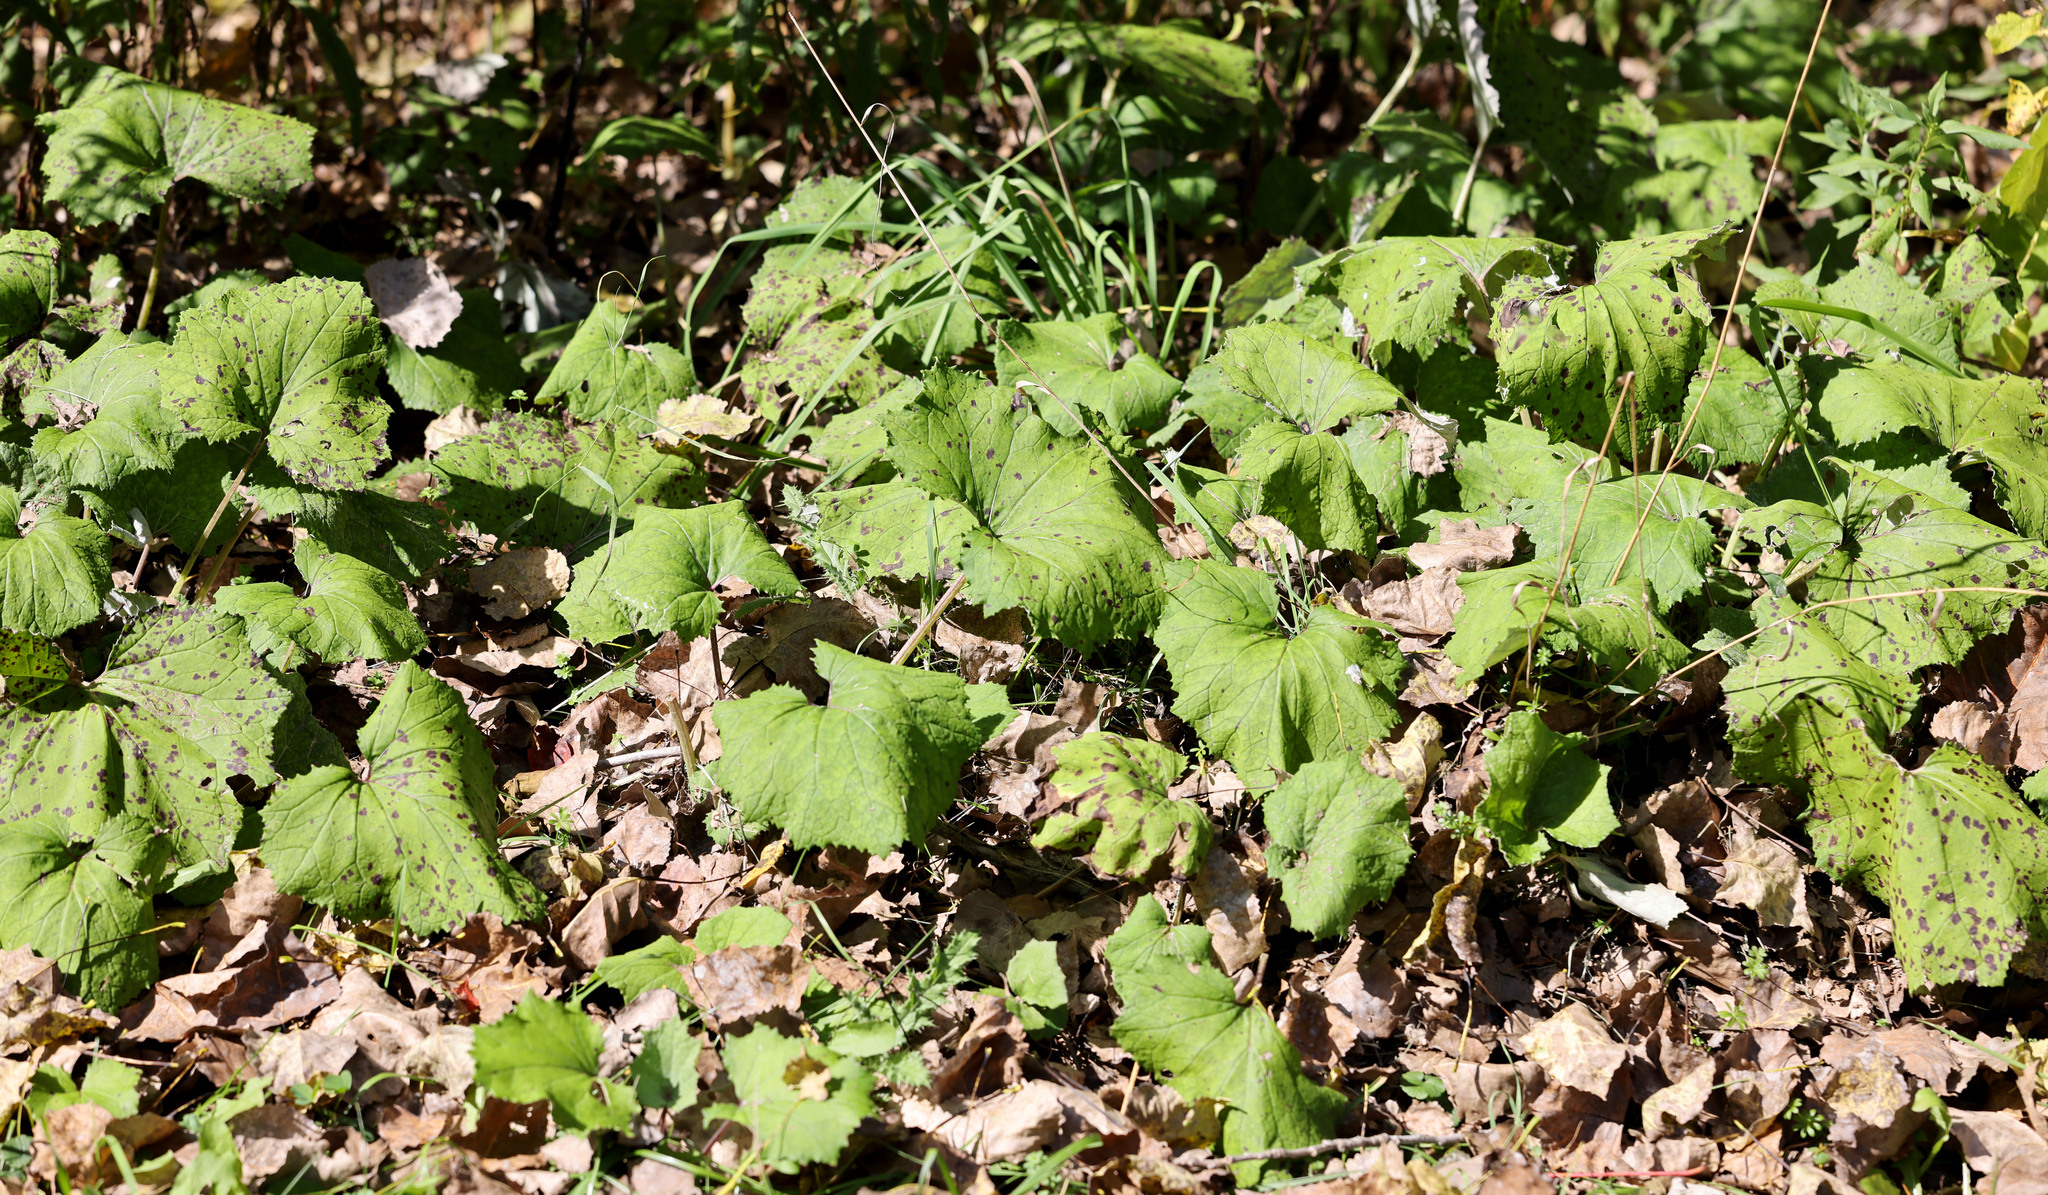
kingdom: Plantae
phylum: Tracheophyta
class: Magnoliopsida
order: Asterales
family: Asteraceae
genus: Tussilago
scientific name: Tussilago farfara
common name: Coltsfoot
